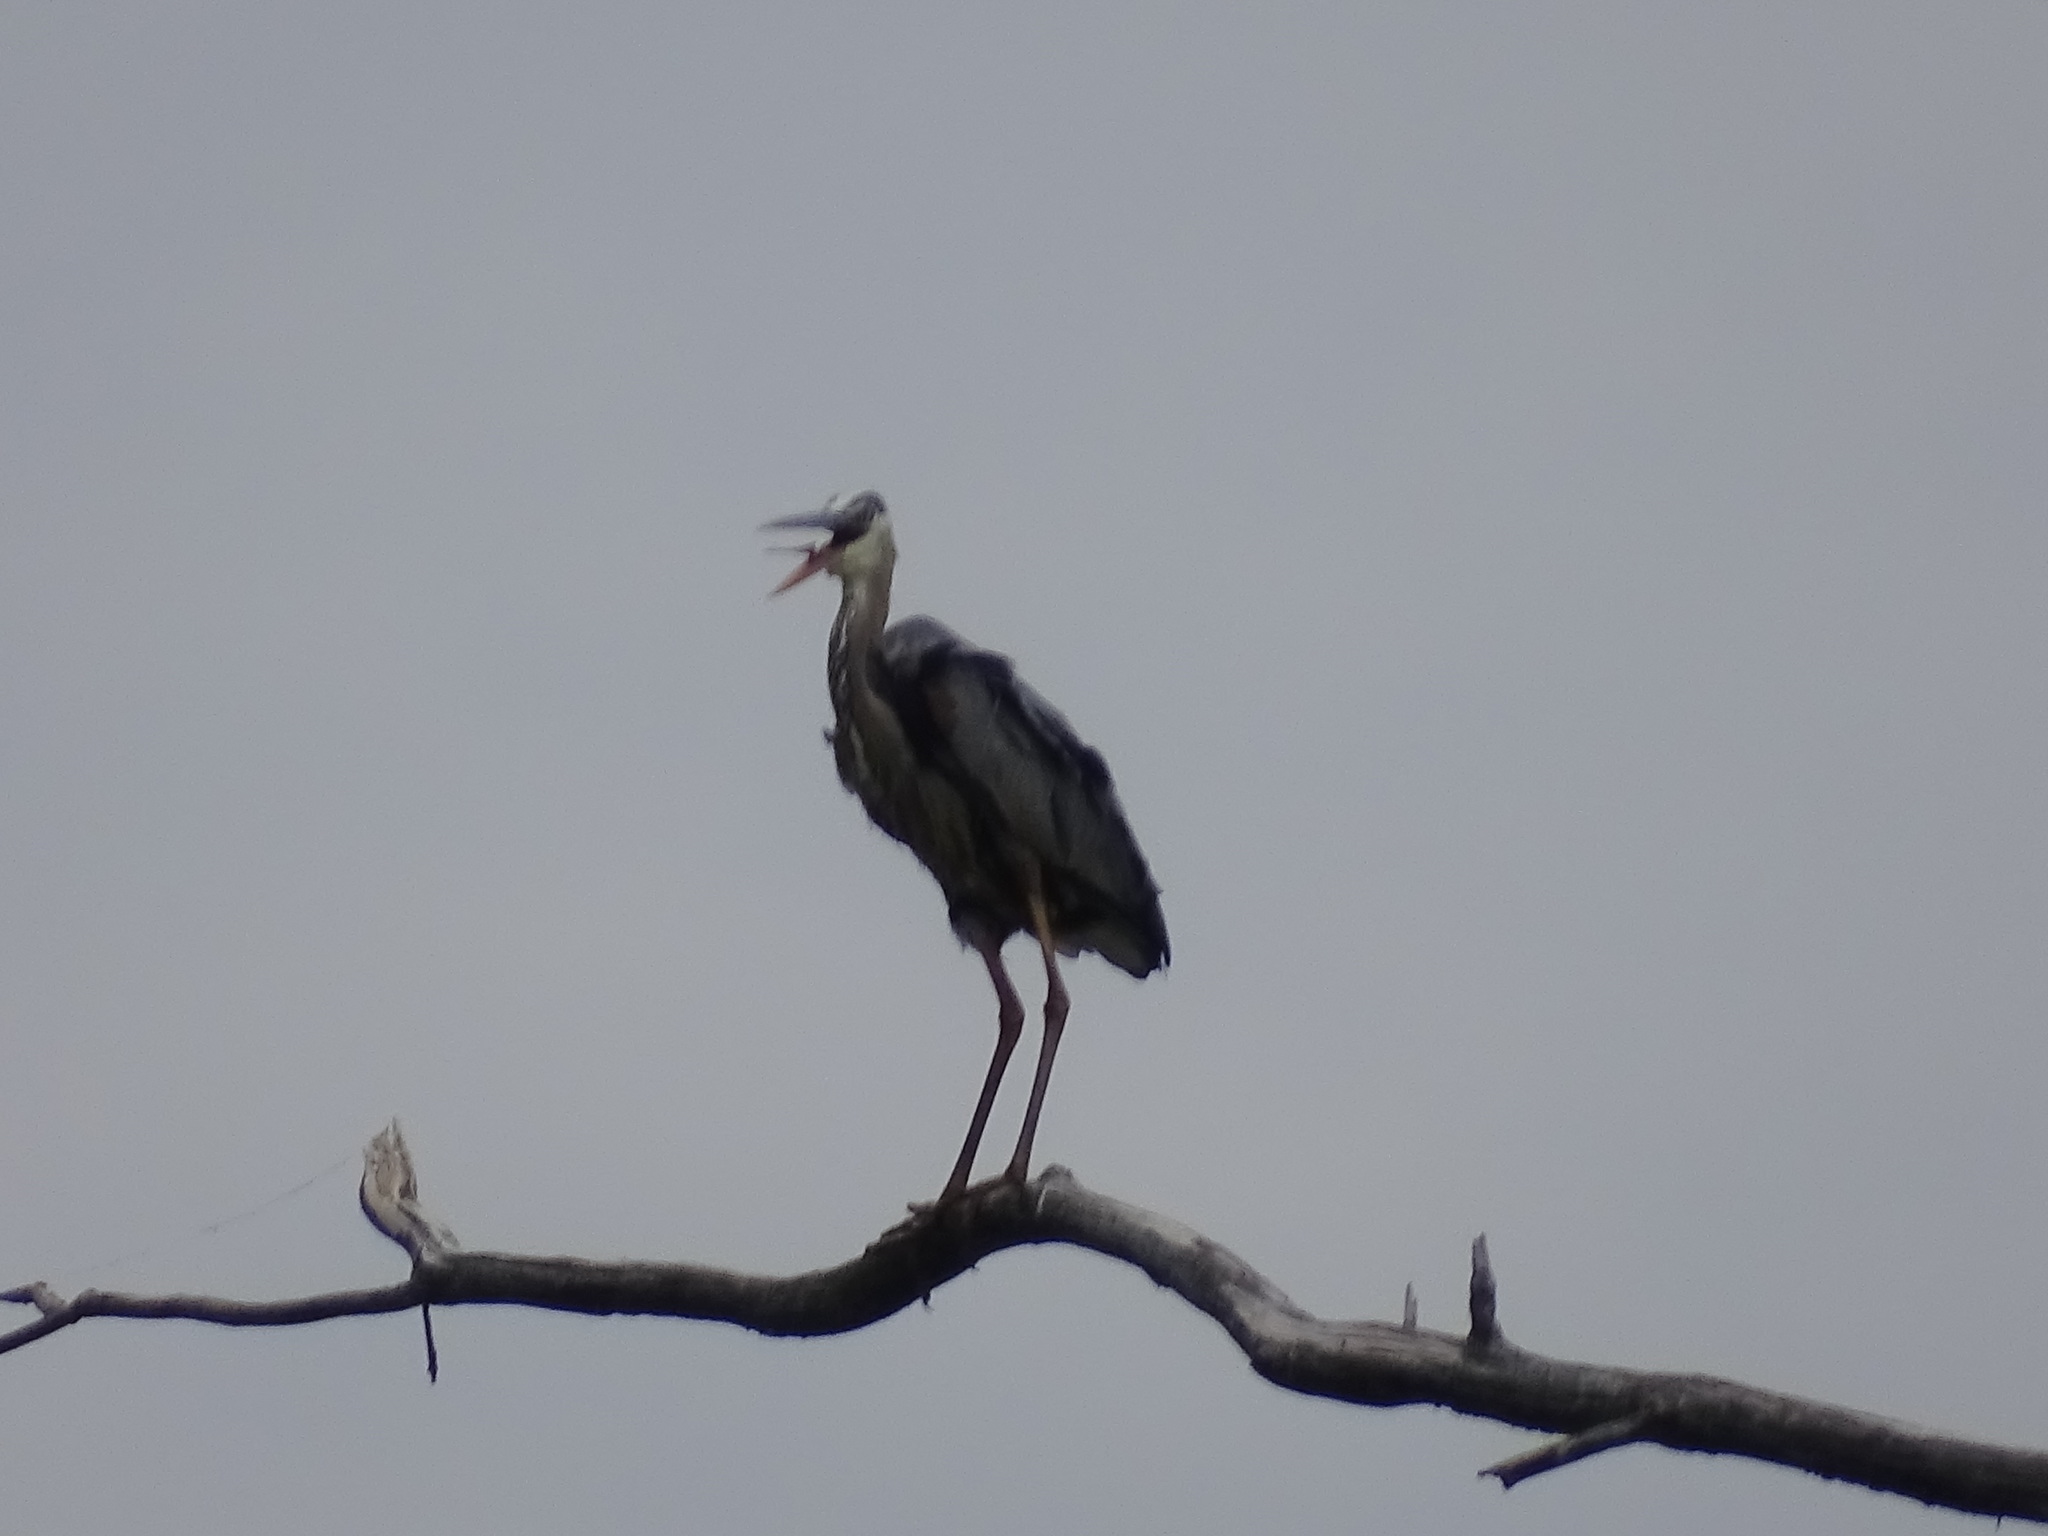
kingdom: Animalia
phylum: Chordata
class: Aves
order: Pelecaniformes
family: Ardeidae
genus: Ardea
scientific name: Ardea herodias
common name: Great blue heron
